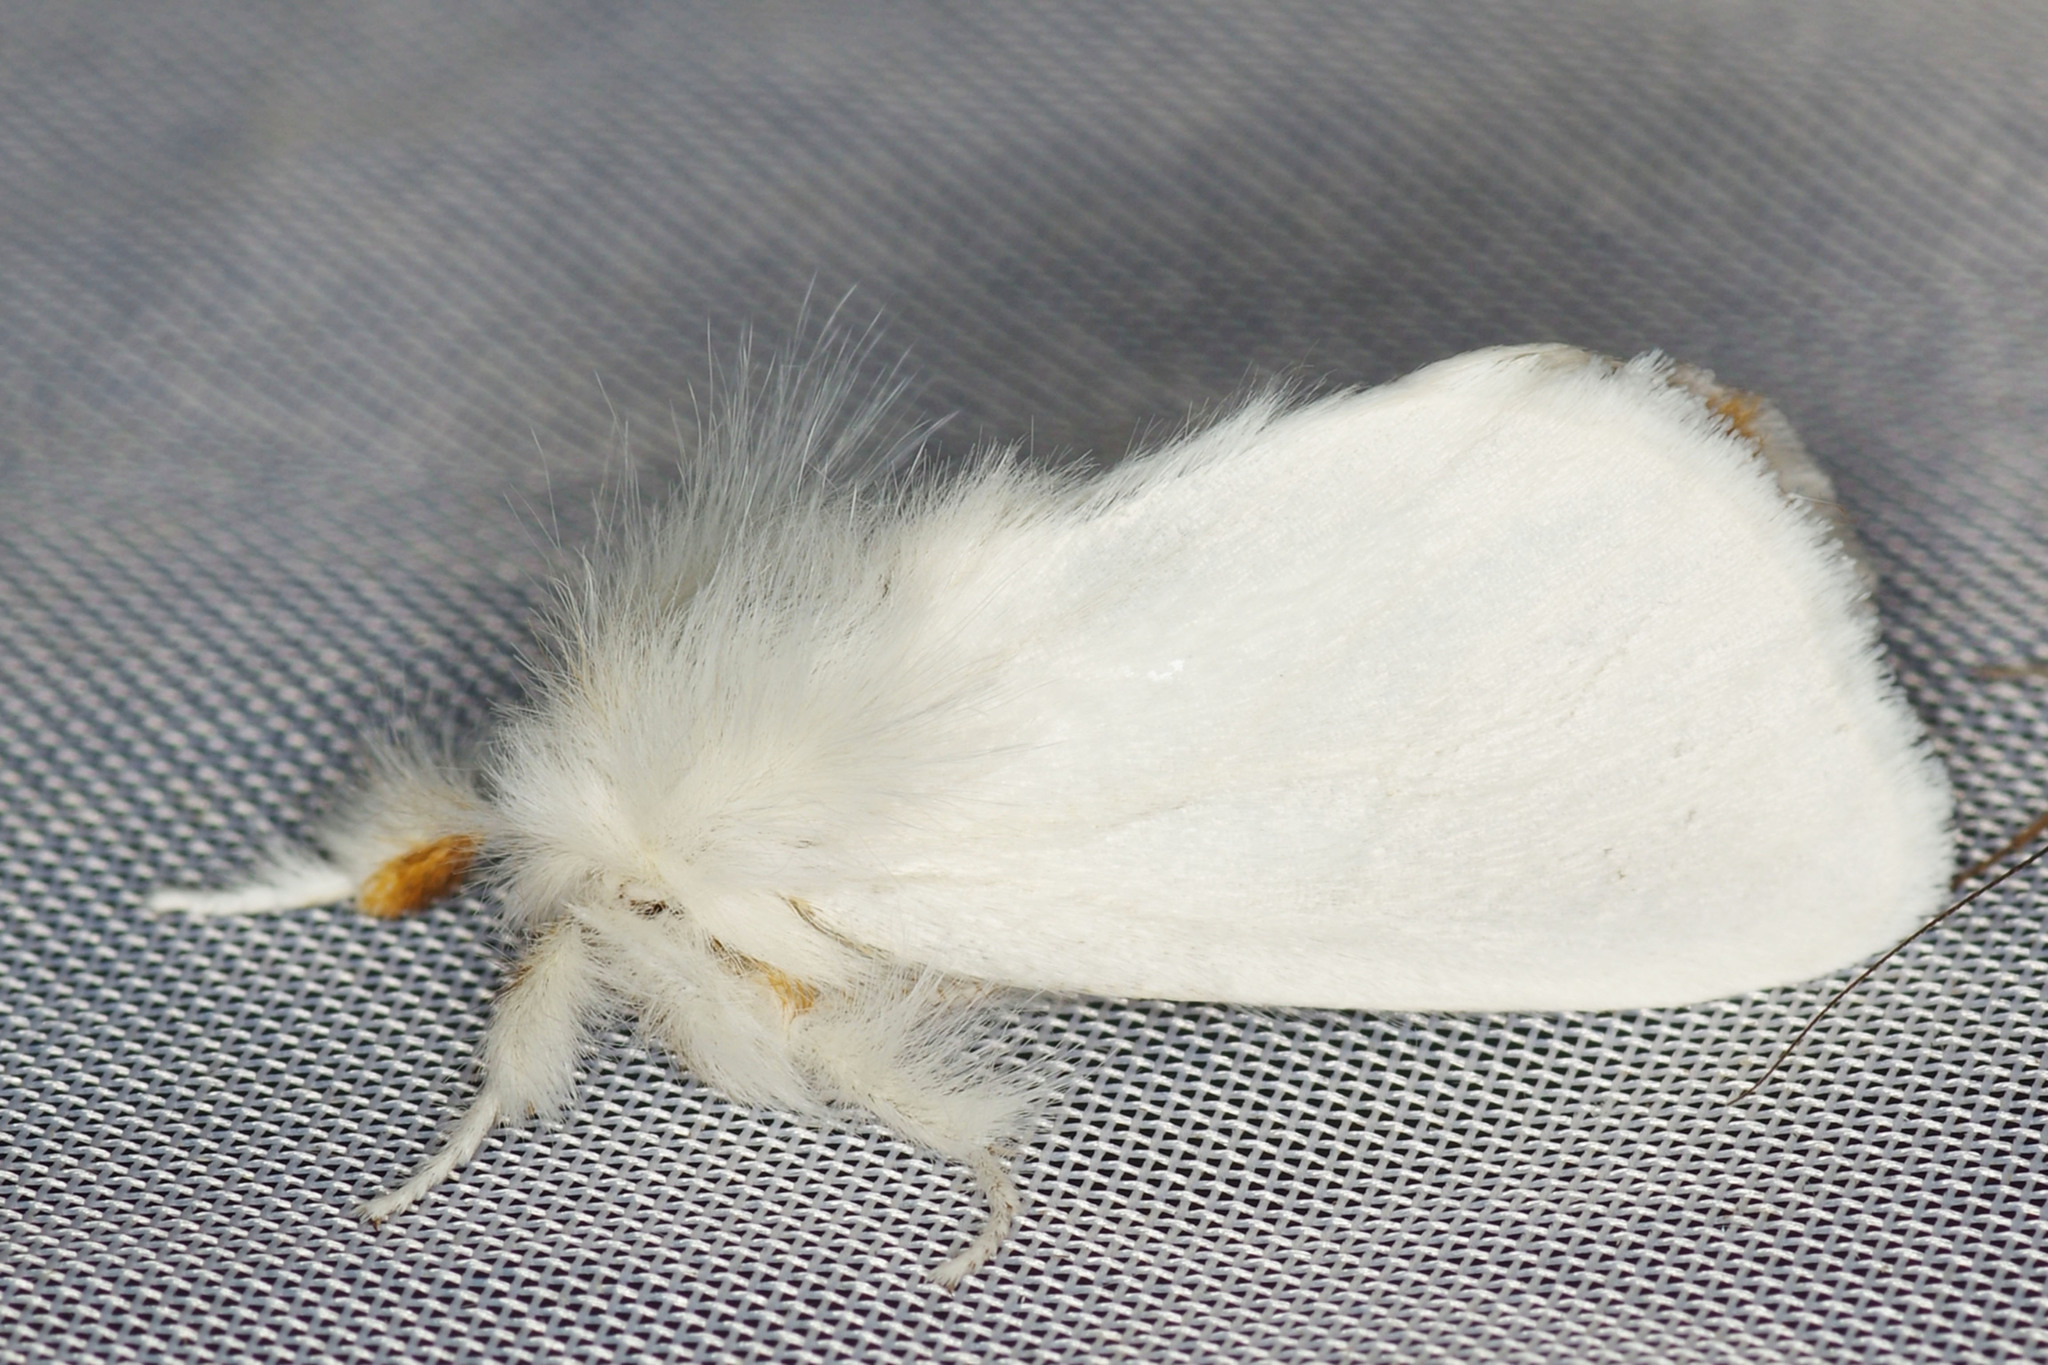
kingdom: Animalia
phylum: Arthropoda
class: Insecta
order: Lepidoptera
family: Erebidae
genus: Sphrageidus
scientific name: Sphrageidus similis
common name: Yellow-tail
